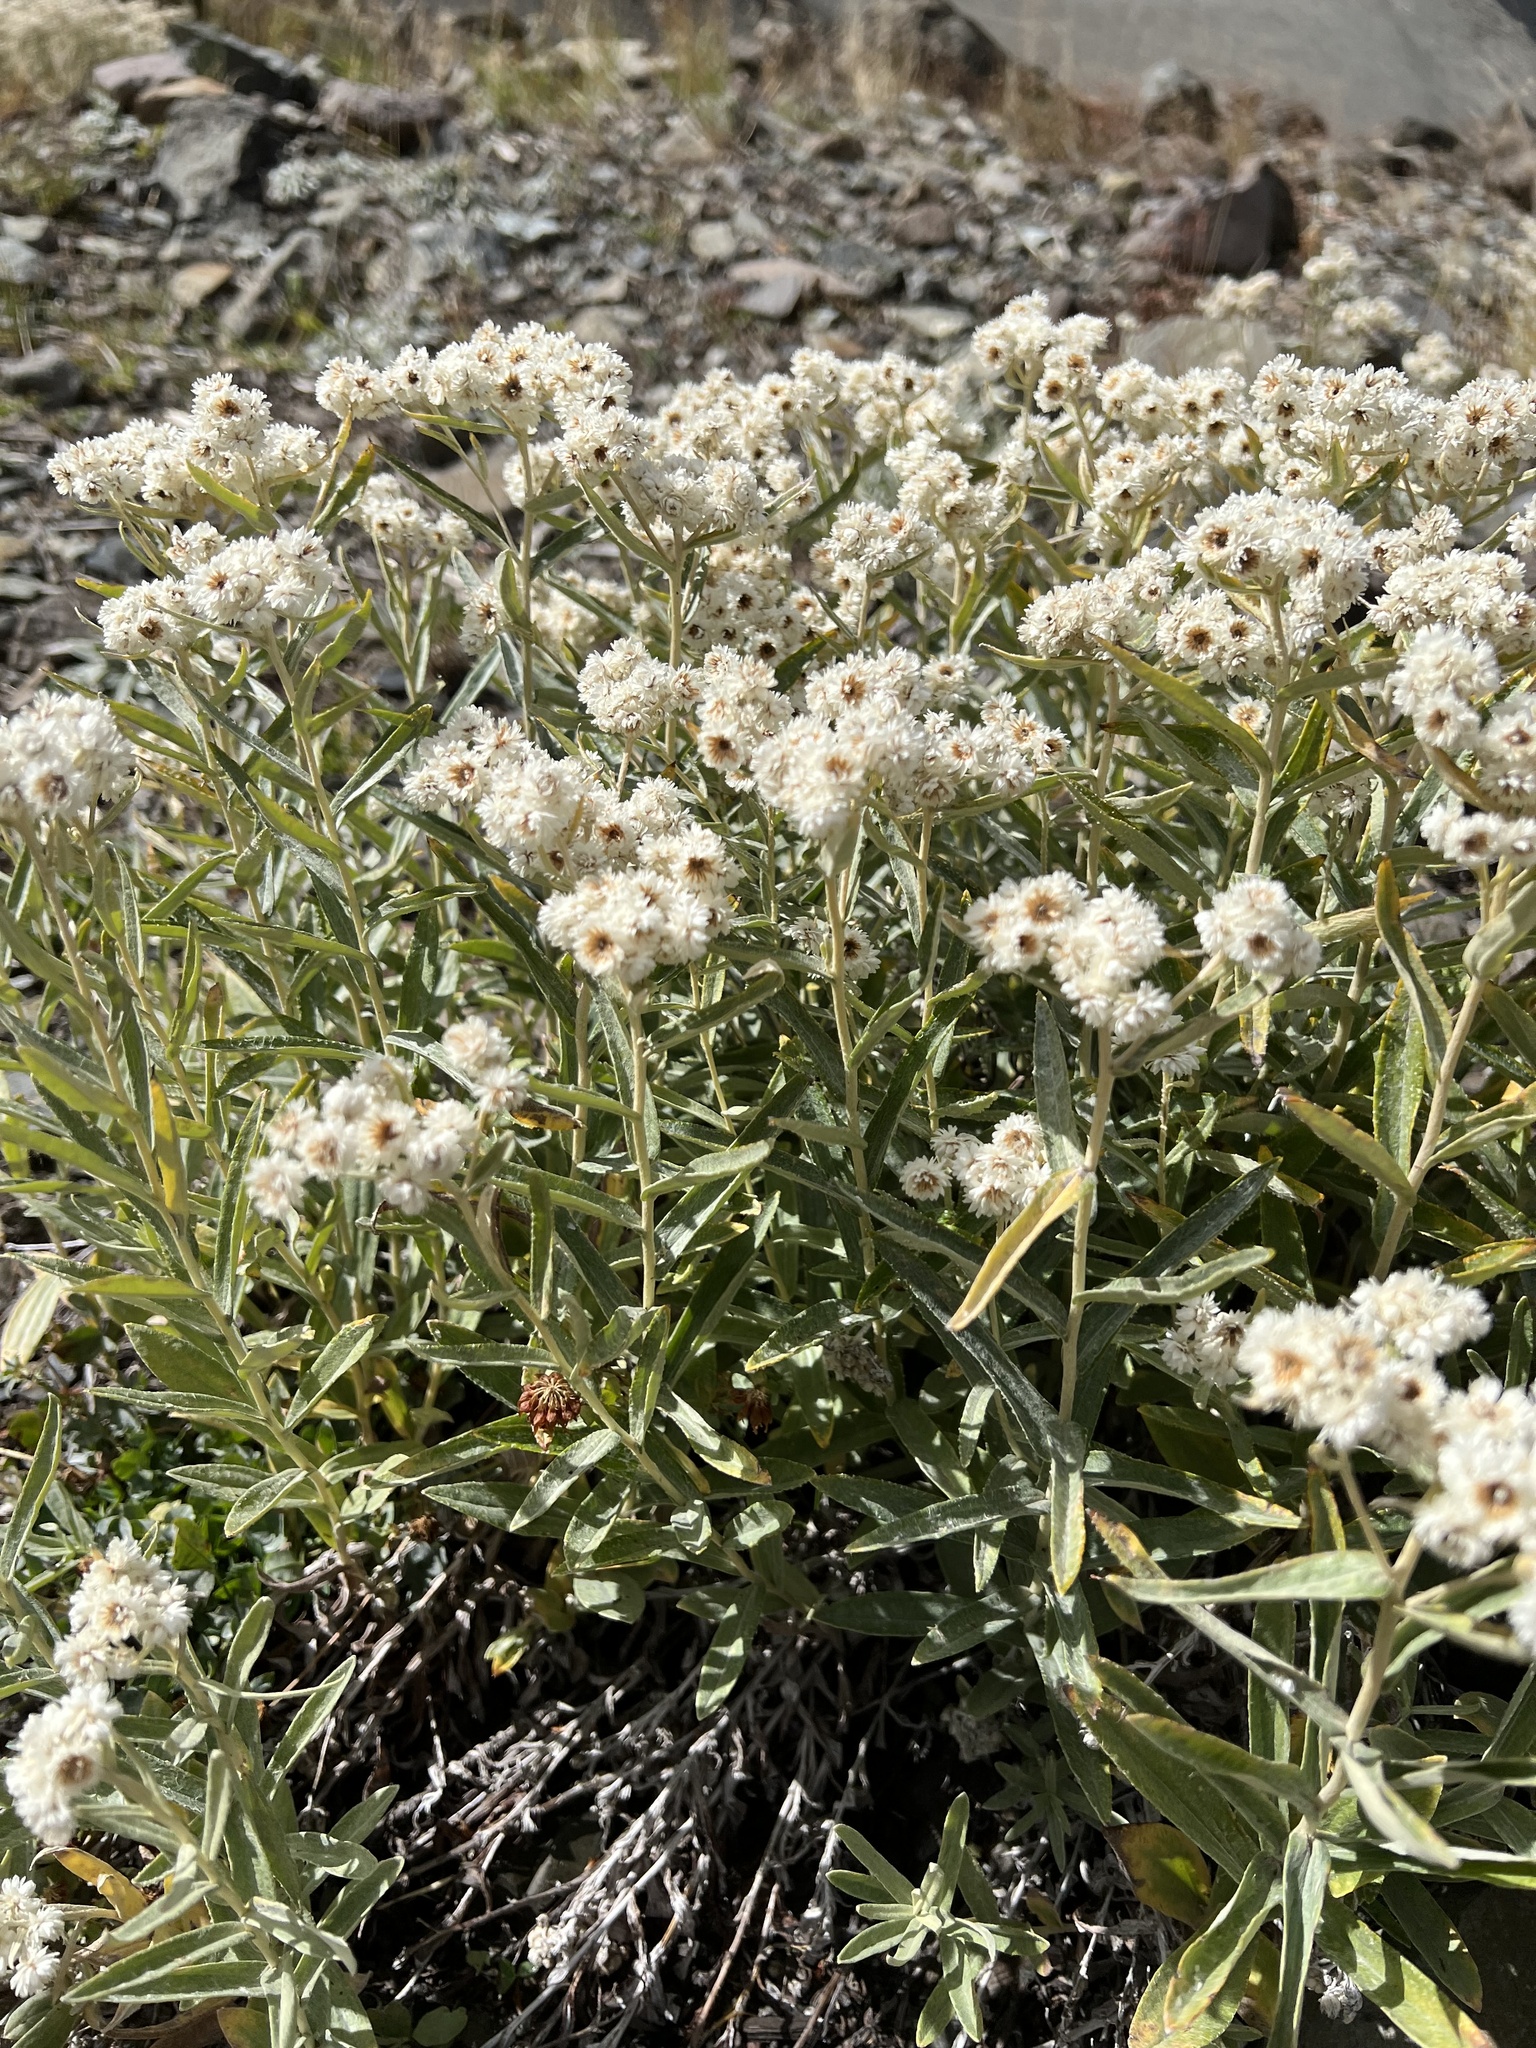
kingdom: Plantae
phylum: Tracheophyta
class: Magnoliopsida
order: Asterales
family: Asteraceae
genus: Anaphalis
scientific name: Anaphalis margaritacea
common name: Pearly everlasting
